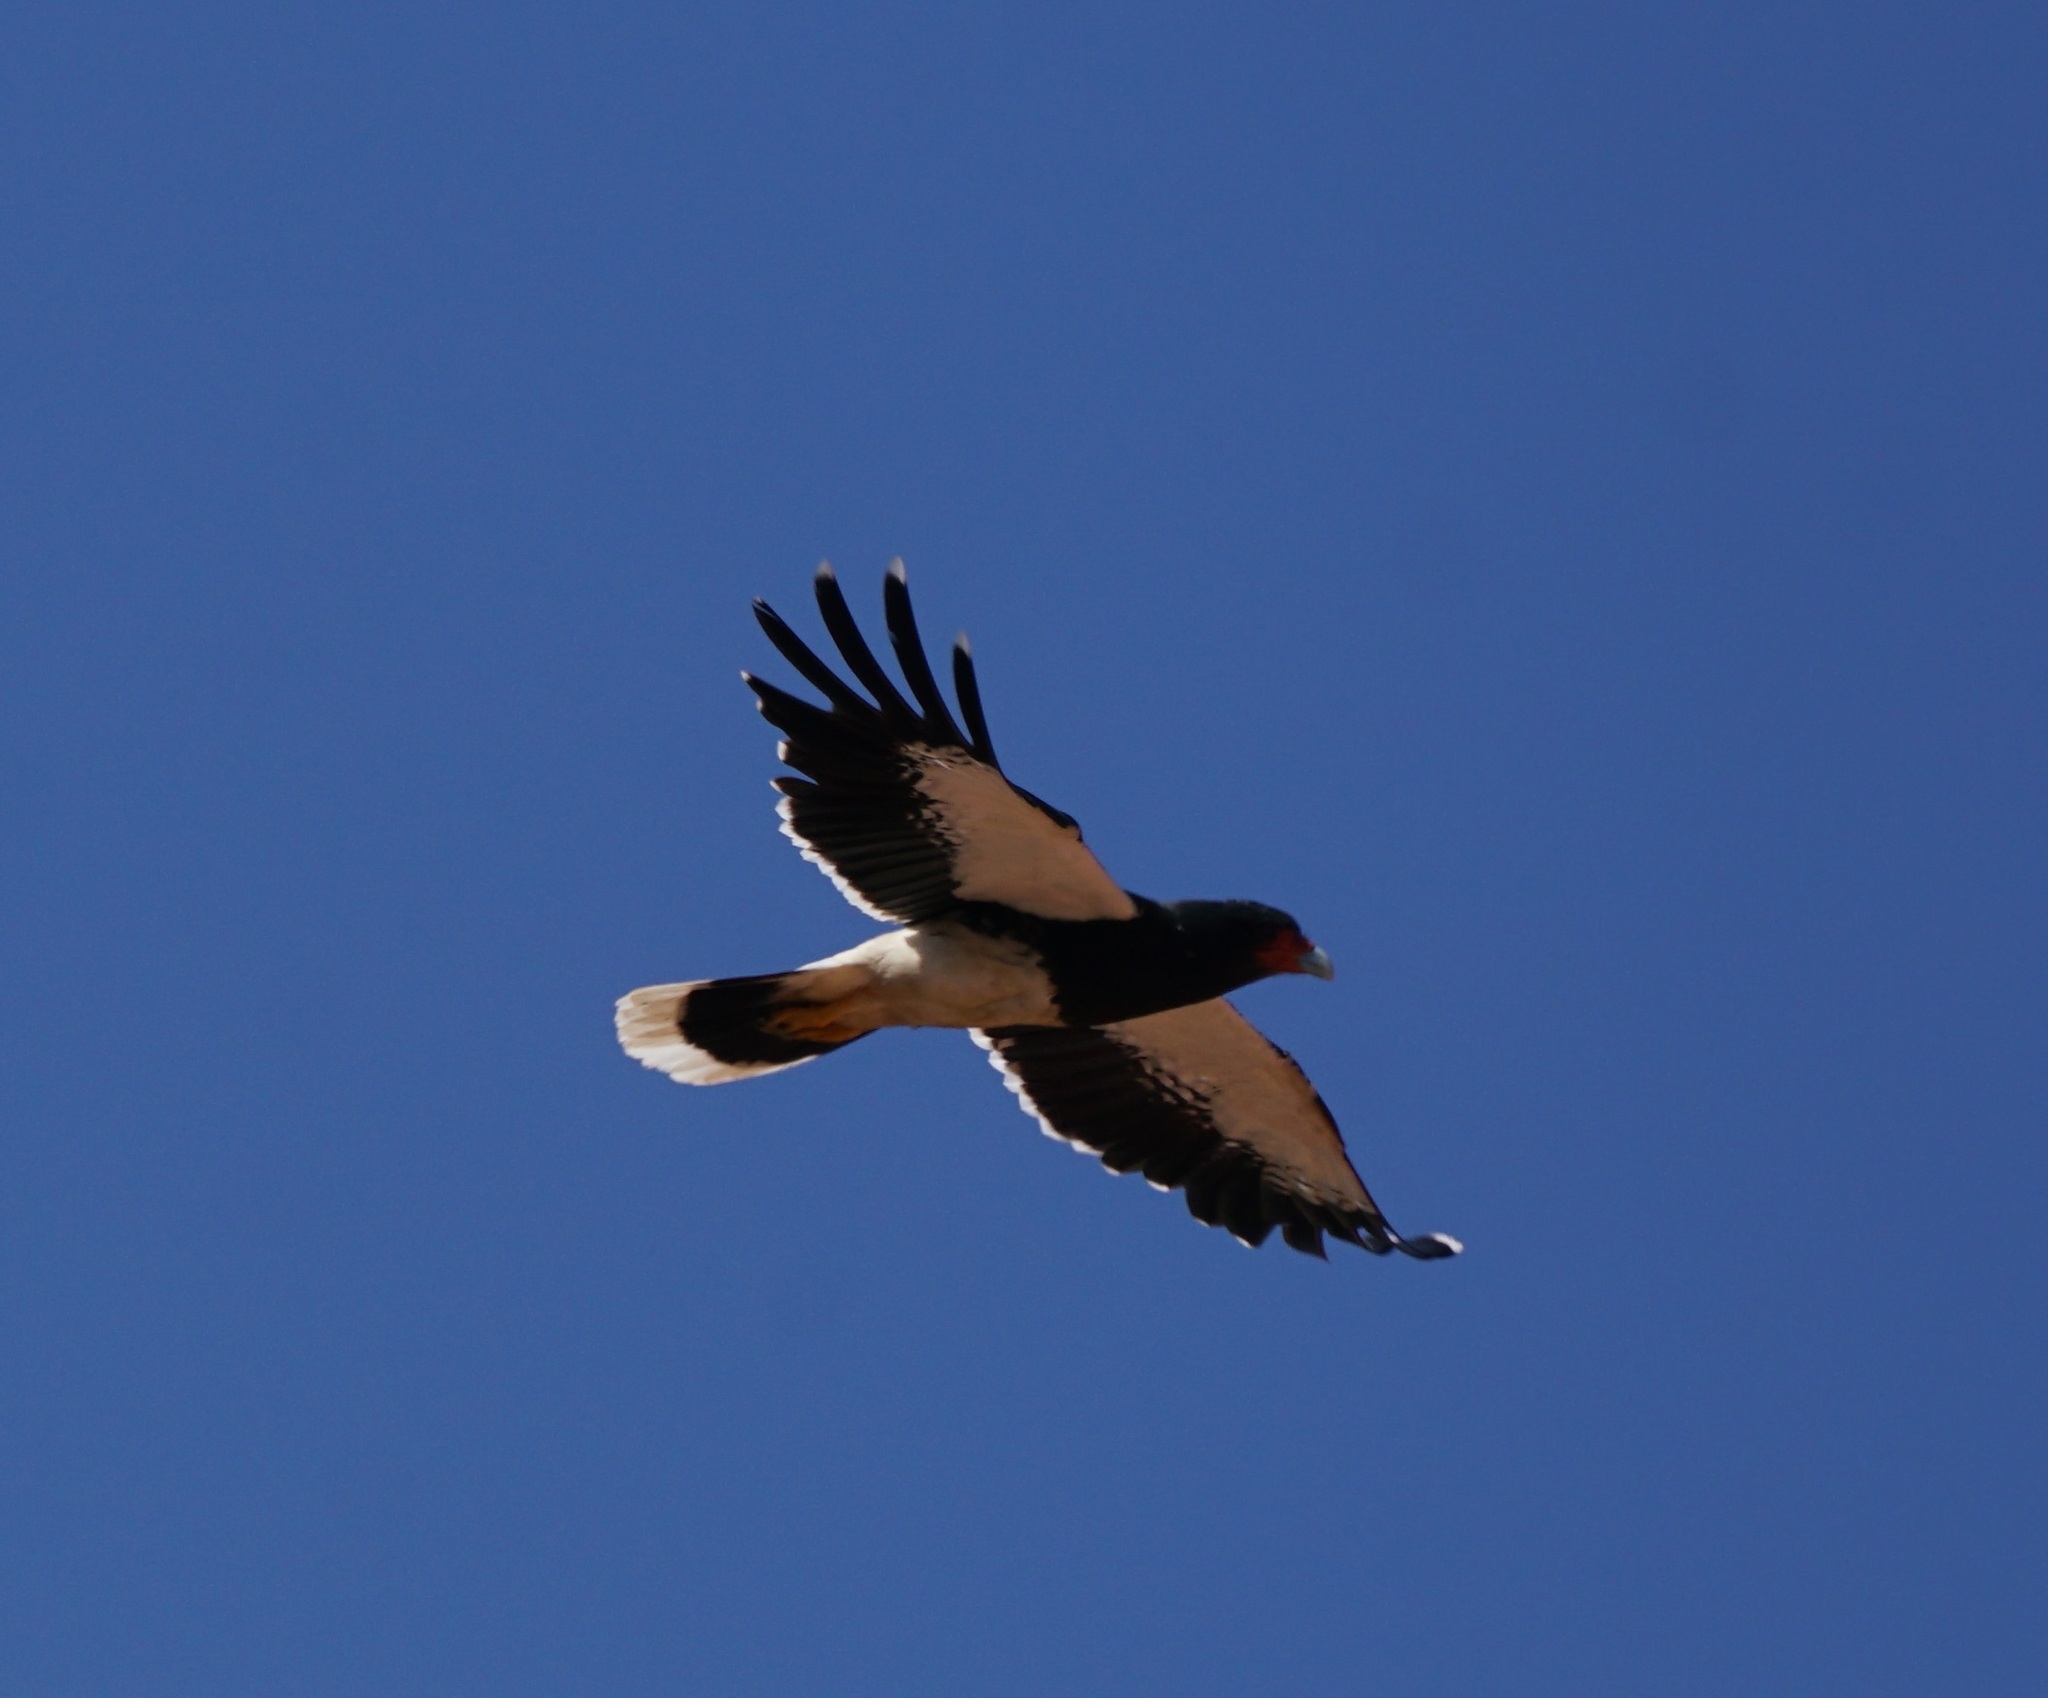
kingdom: Animalia
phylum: Chordata
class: Aves
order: Falconiformes
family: Falconidae
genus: Daptrius
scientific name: Daptrius
